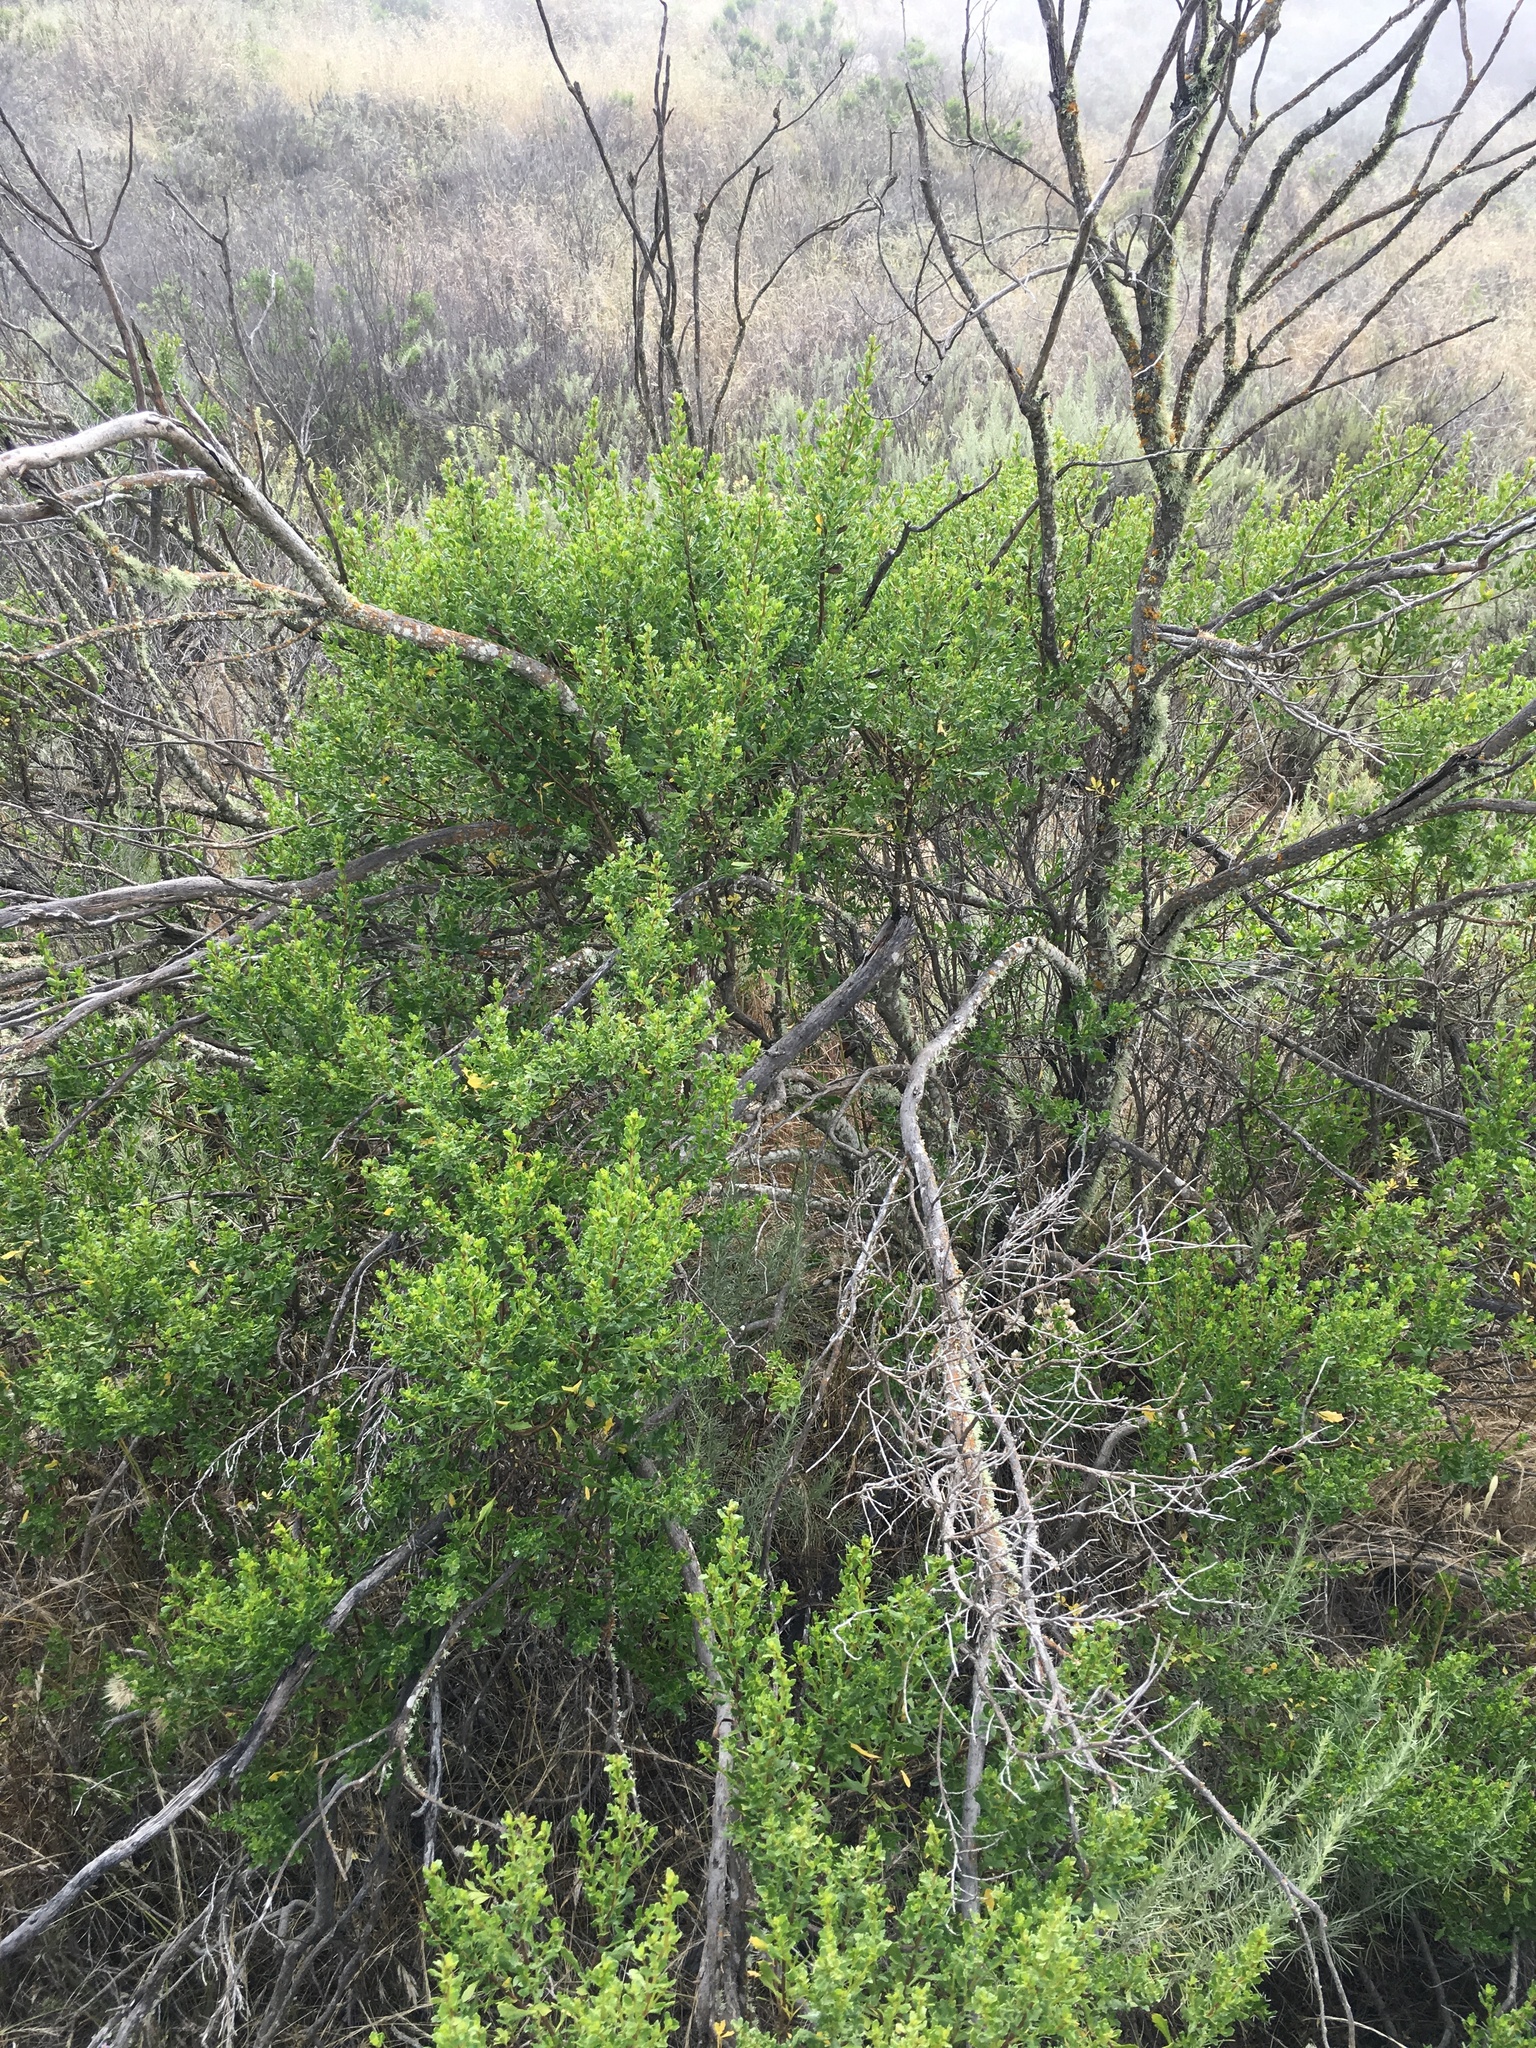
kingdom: Plantae
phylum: Tracheophyta
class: Magnoliopsida
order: Asterales
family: Asteraceae
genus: Baccharis
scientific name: Baccharis pilularis
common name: Coyotebrush
